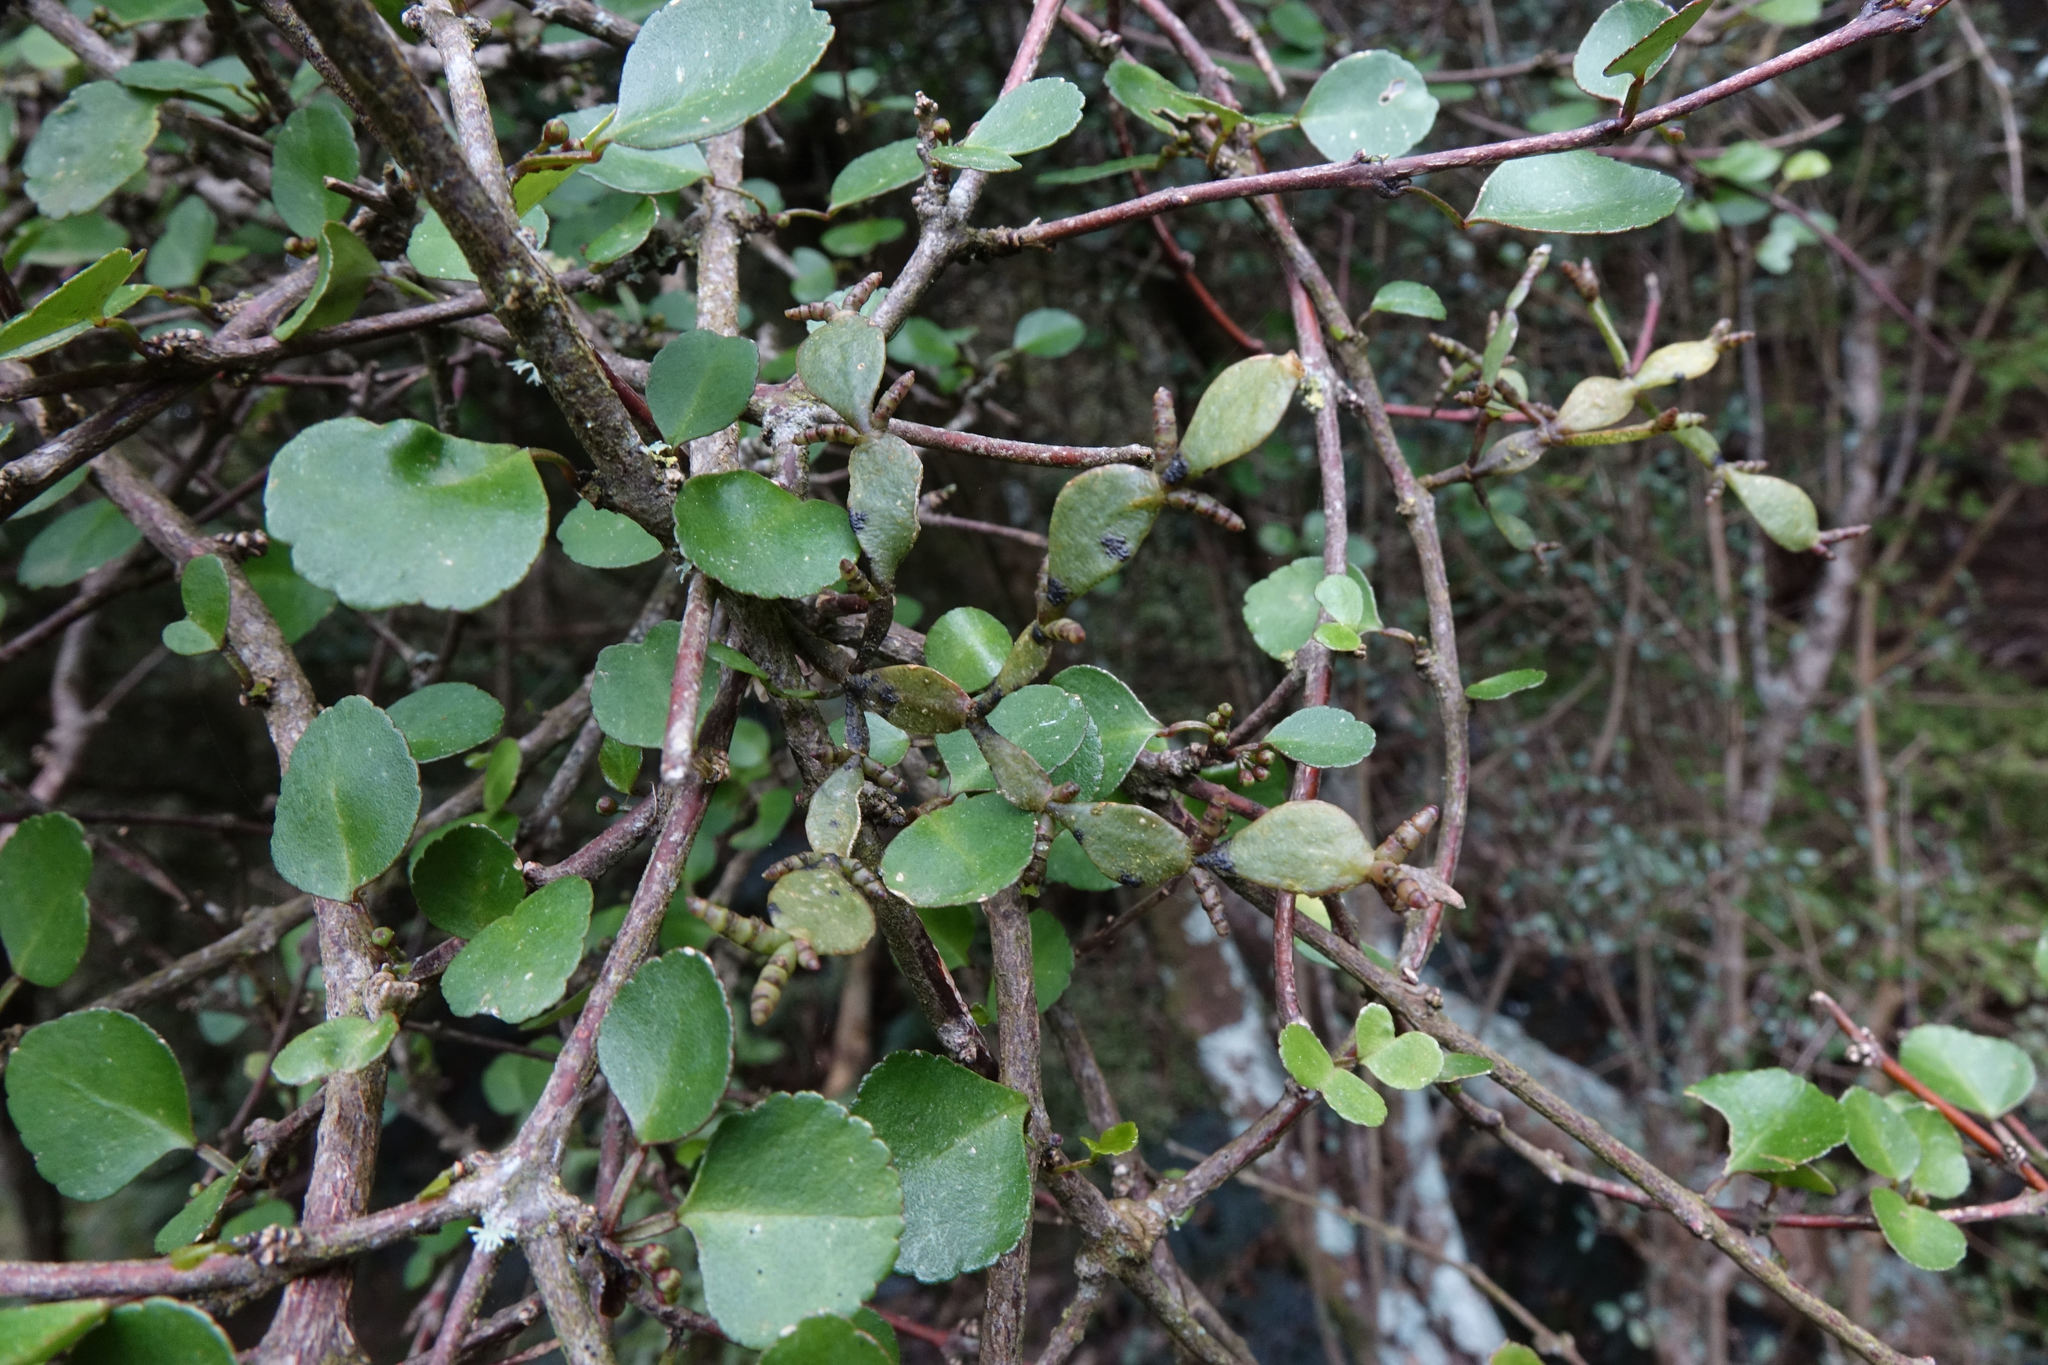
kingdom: Plantae
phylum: Tracheophyta
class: Magnoliopsida
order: Santalales
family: Viscaceae
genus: Korthalsella
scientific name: Korthalsella lindsayi
